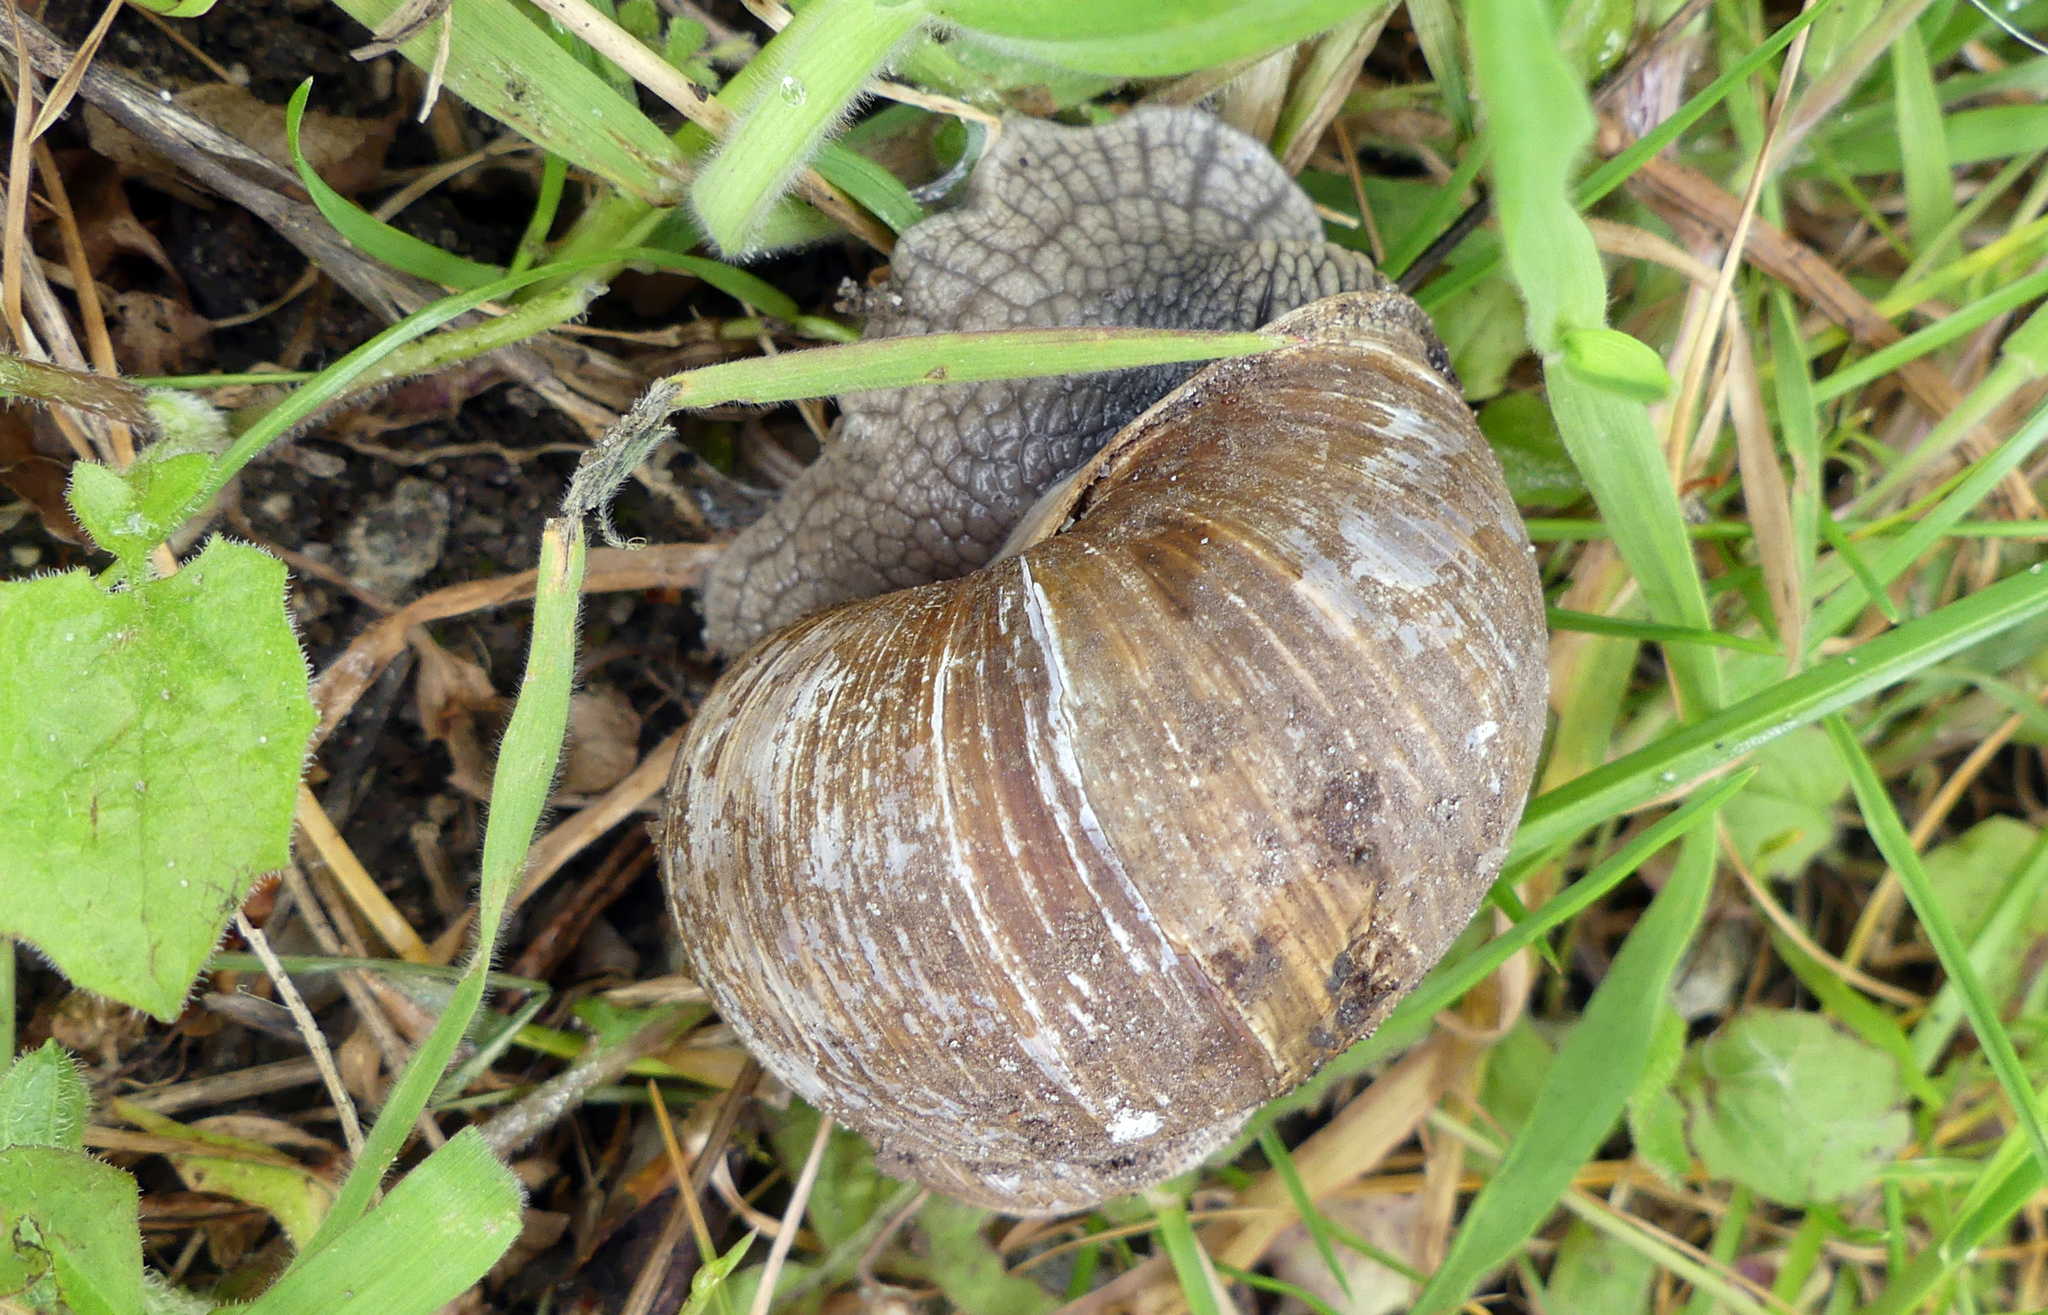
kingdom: Animalia
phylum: Mollusca
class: Gastropoda
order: Stylommatophora
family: Helicidae
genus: Helix
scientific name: Helix pomatia
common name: Roman snail
